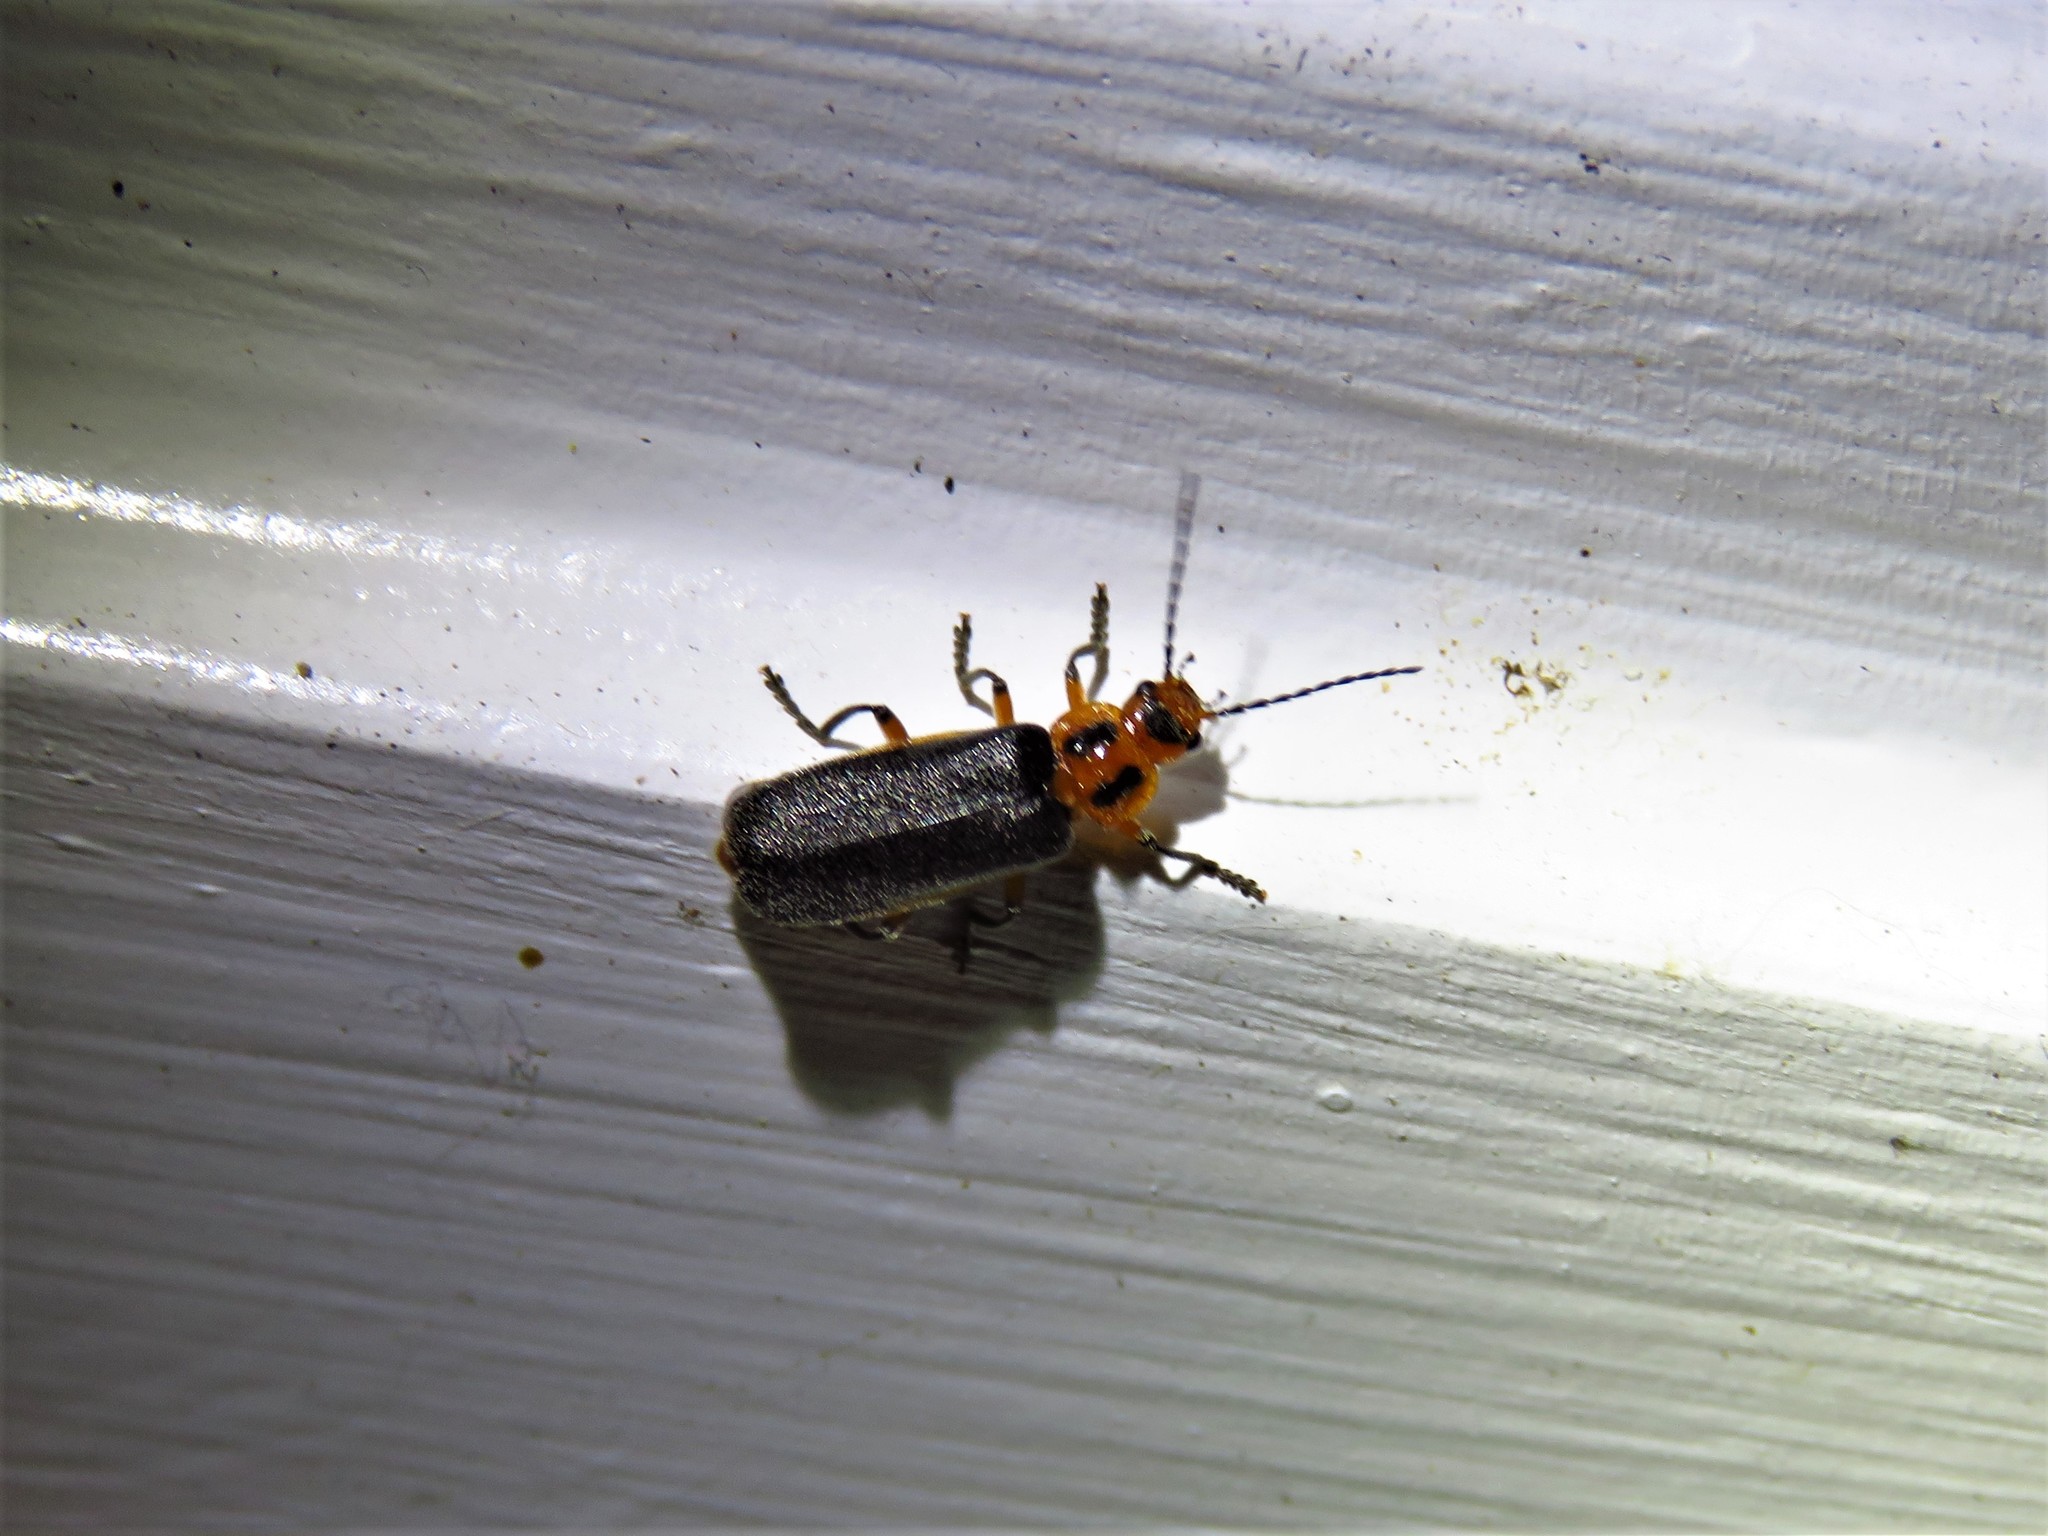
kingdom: Animalia
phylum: Arthropoda
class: Insecta
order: Coleoptera
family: Cantharidae
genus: Atalantycha
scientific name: Atalantycha bilineata
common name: Two-lined leatherwing
